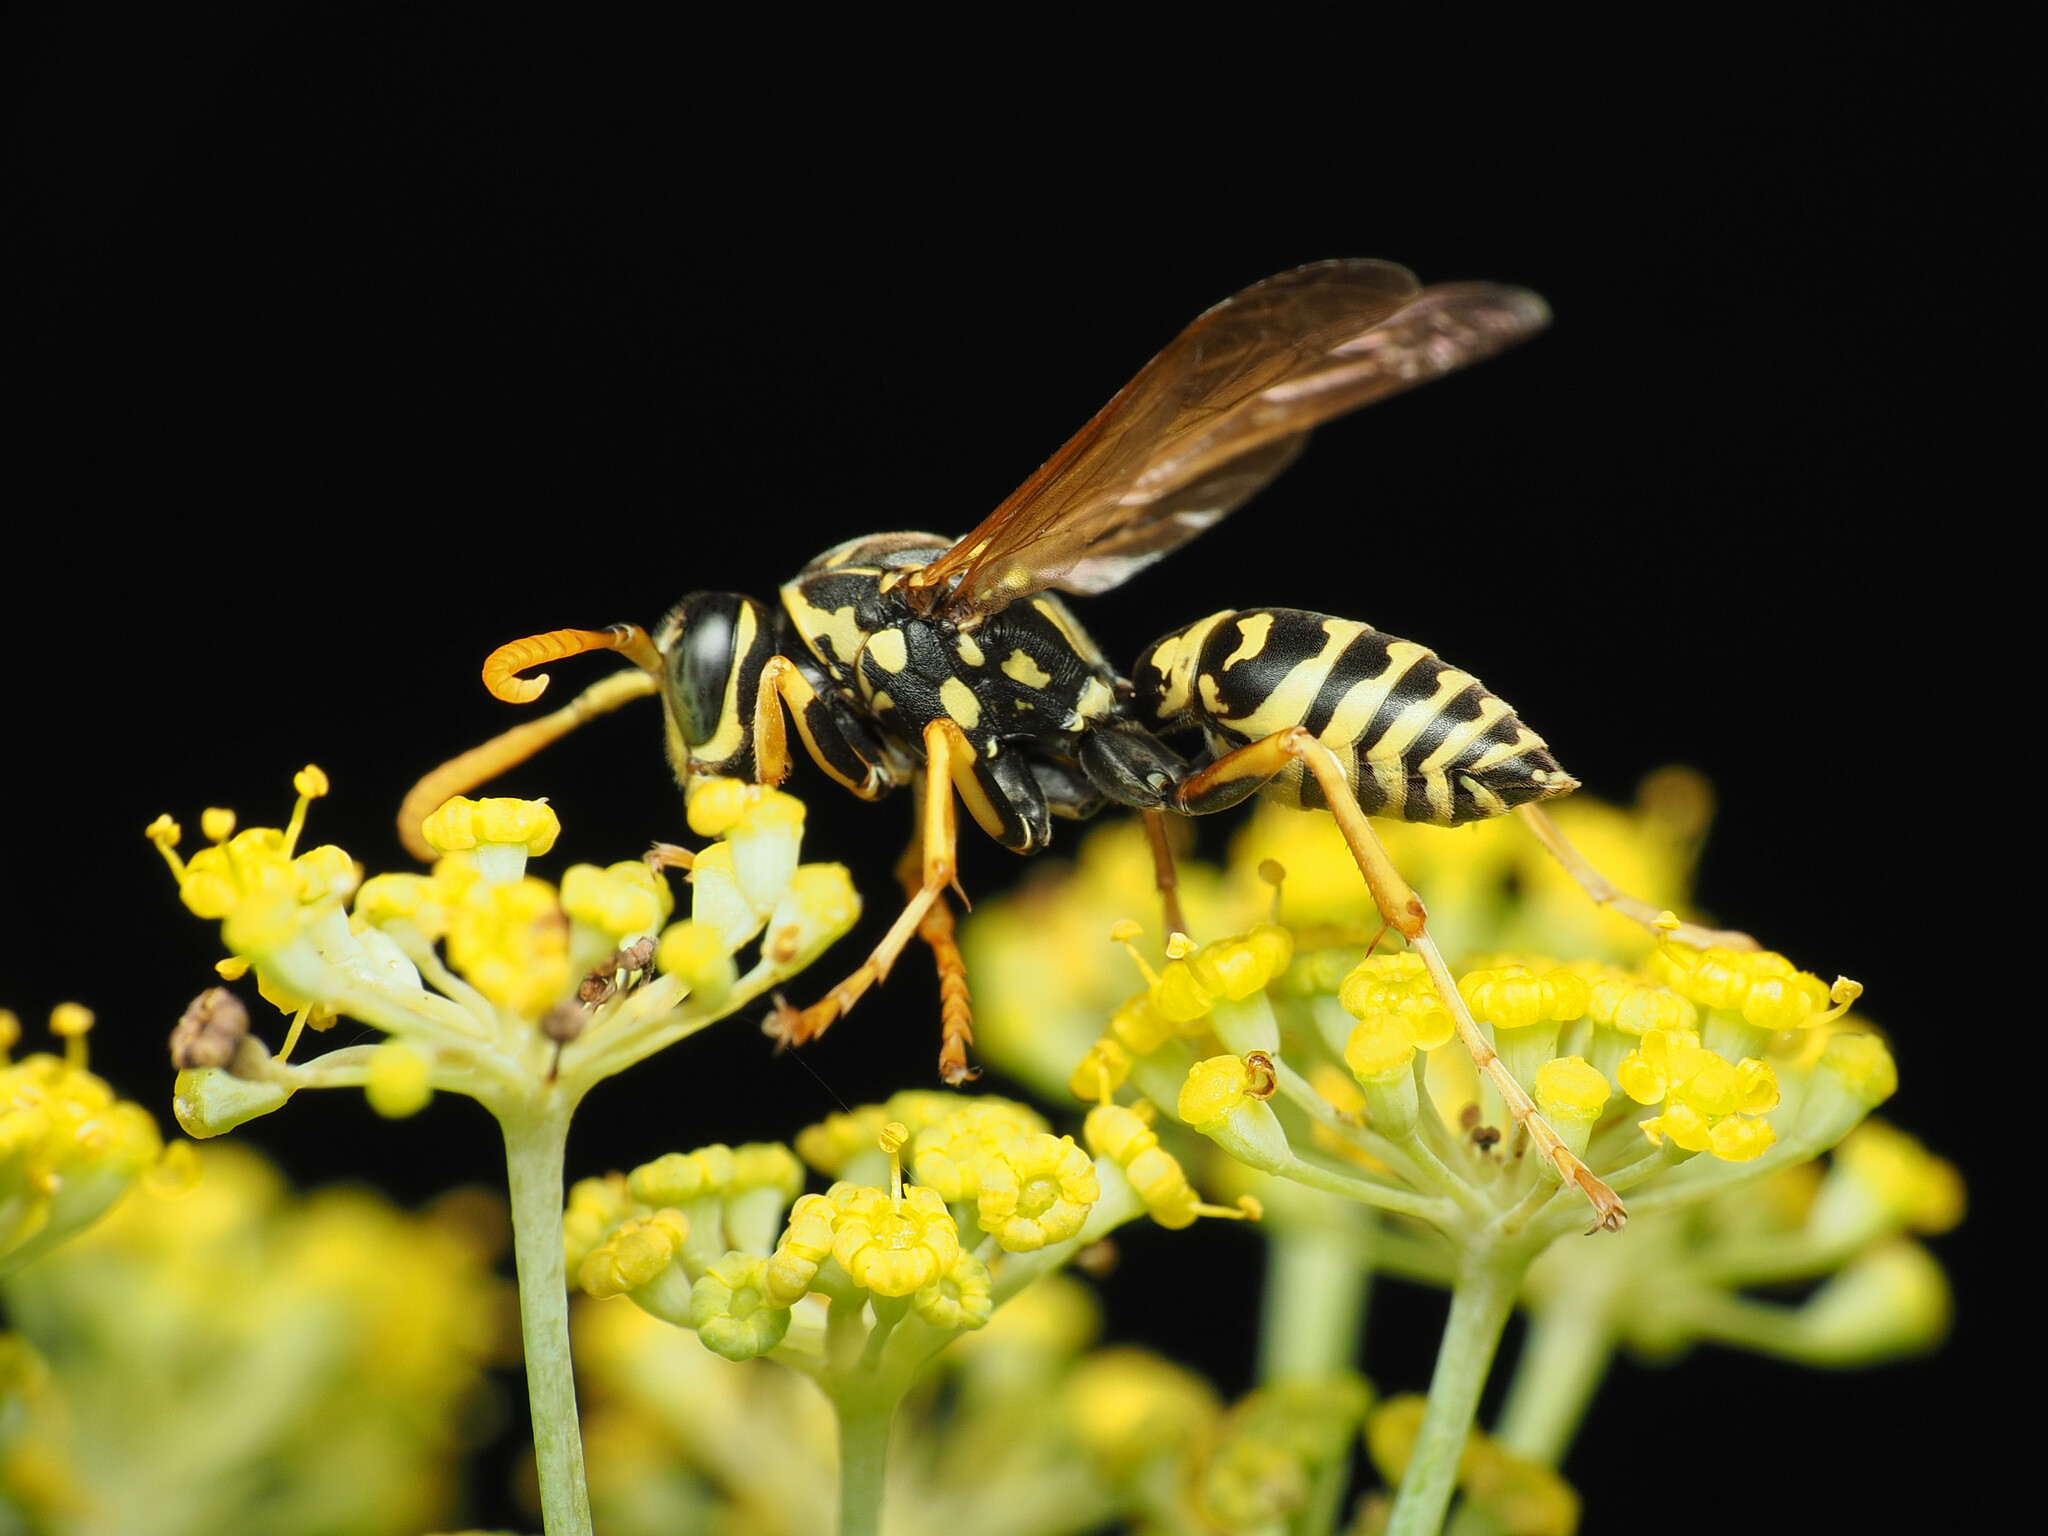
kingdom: Animalia
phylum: Arthropoda
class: Insecta
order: Hymenoptera
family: Eumenidae
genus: Polistes
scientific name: Polistes dominula
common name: Paper wasp
